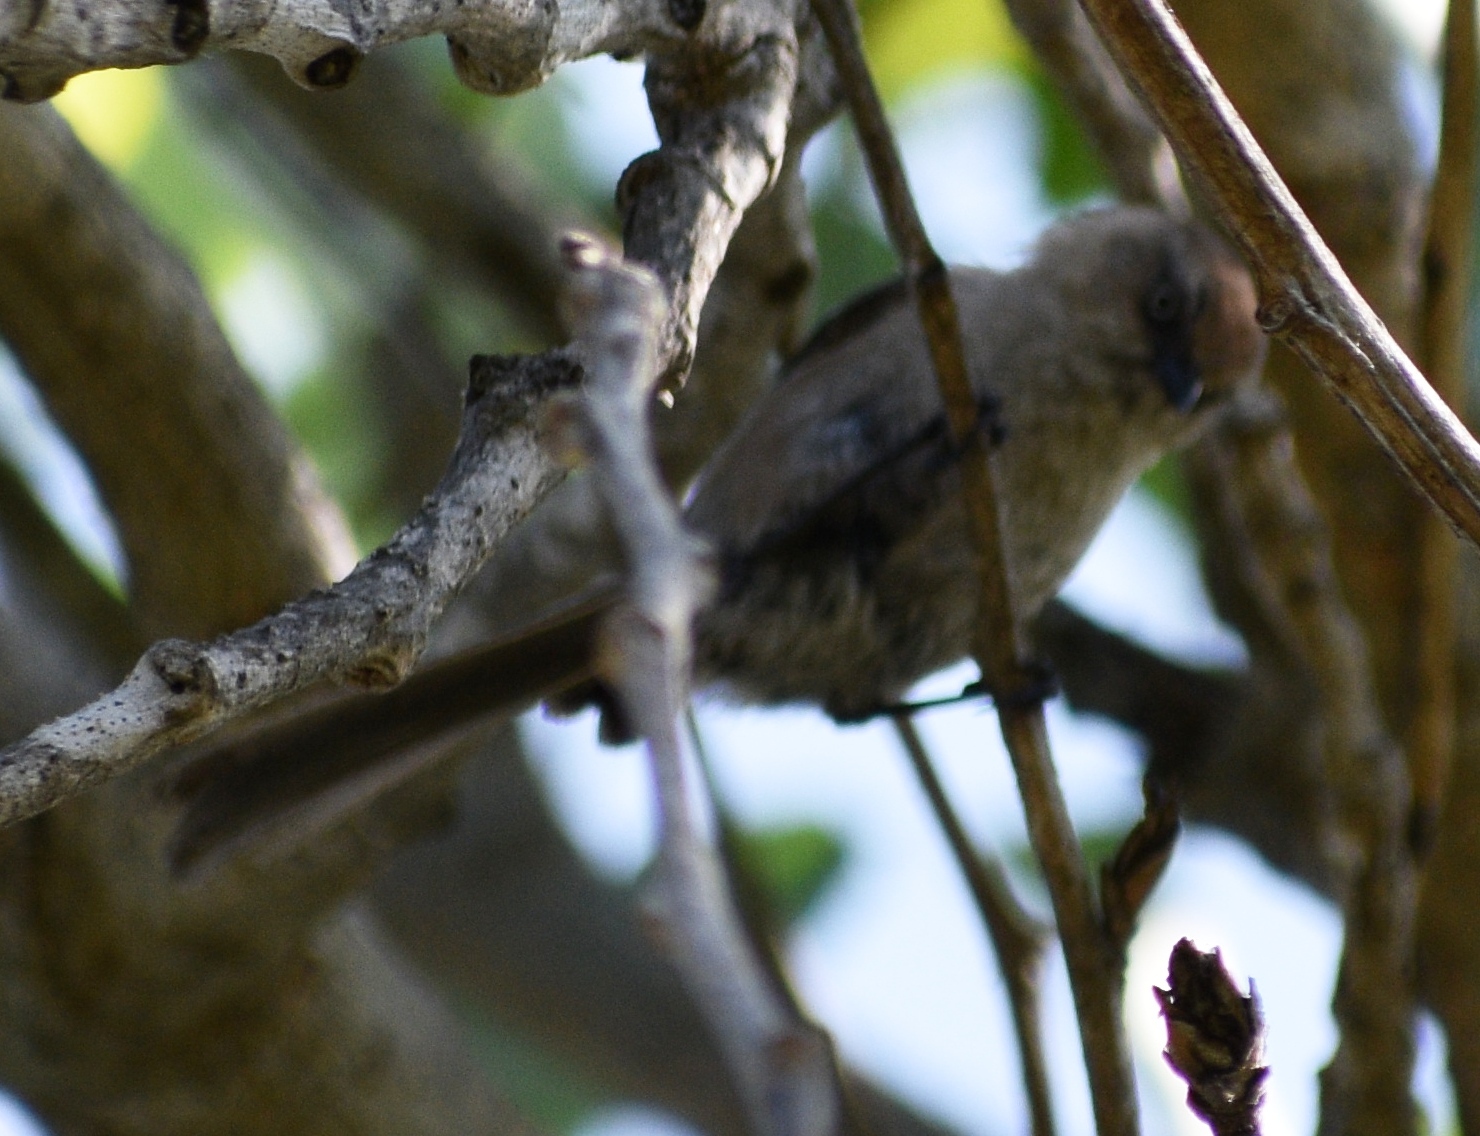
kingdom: Animalia
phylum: Chordata
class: Aves
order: Passeriformes
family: Aegithalidae
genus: Psaltriparus
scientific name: Psaltriparus minimus
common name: American bushtit
